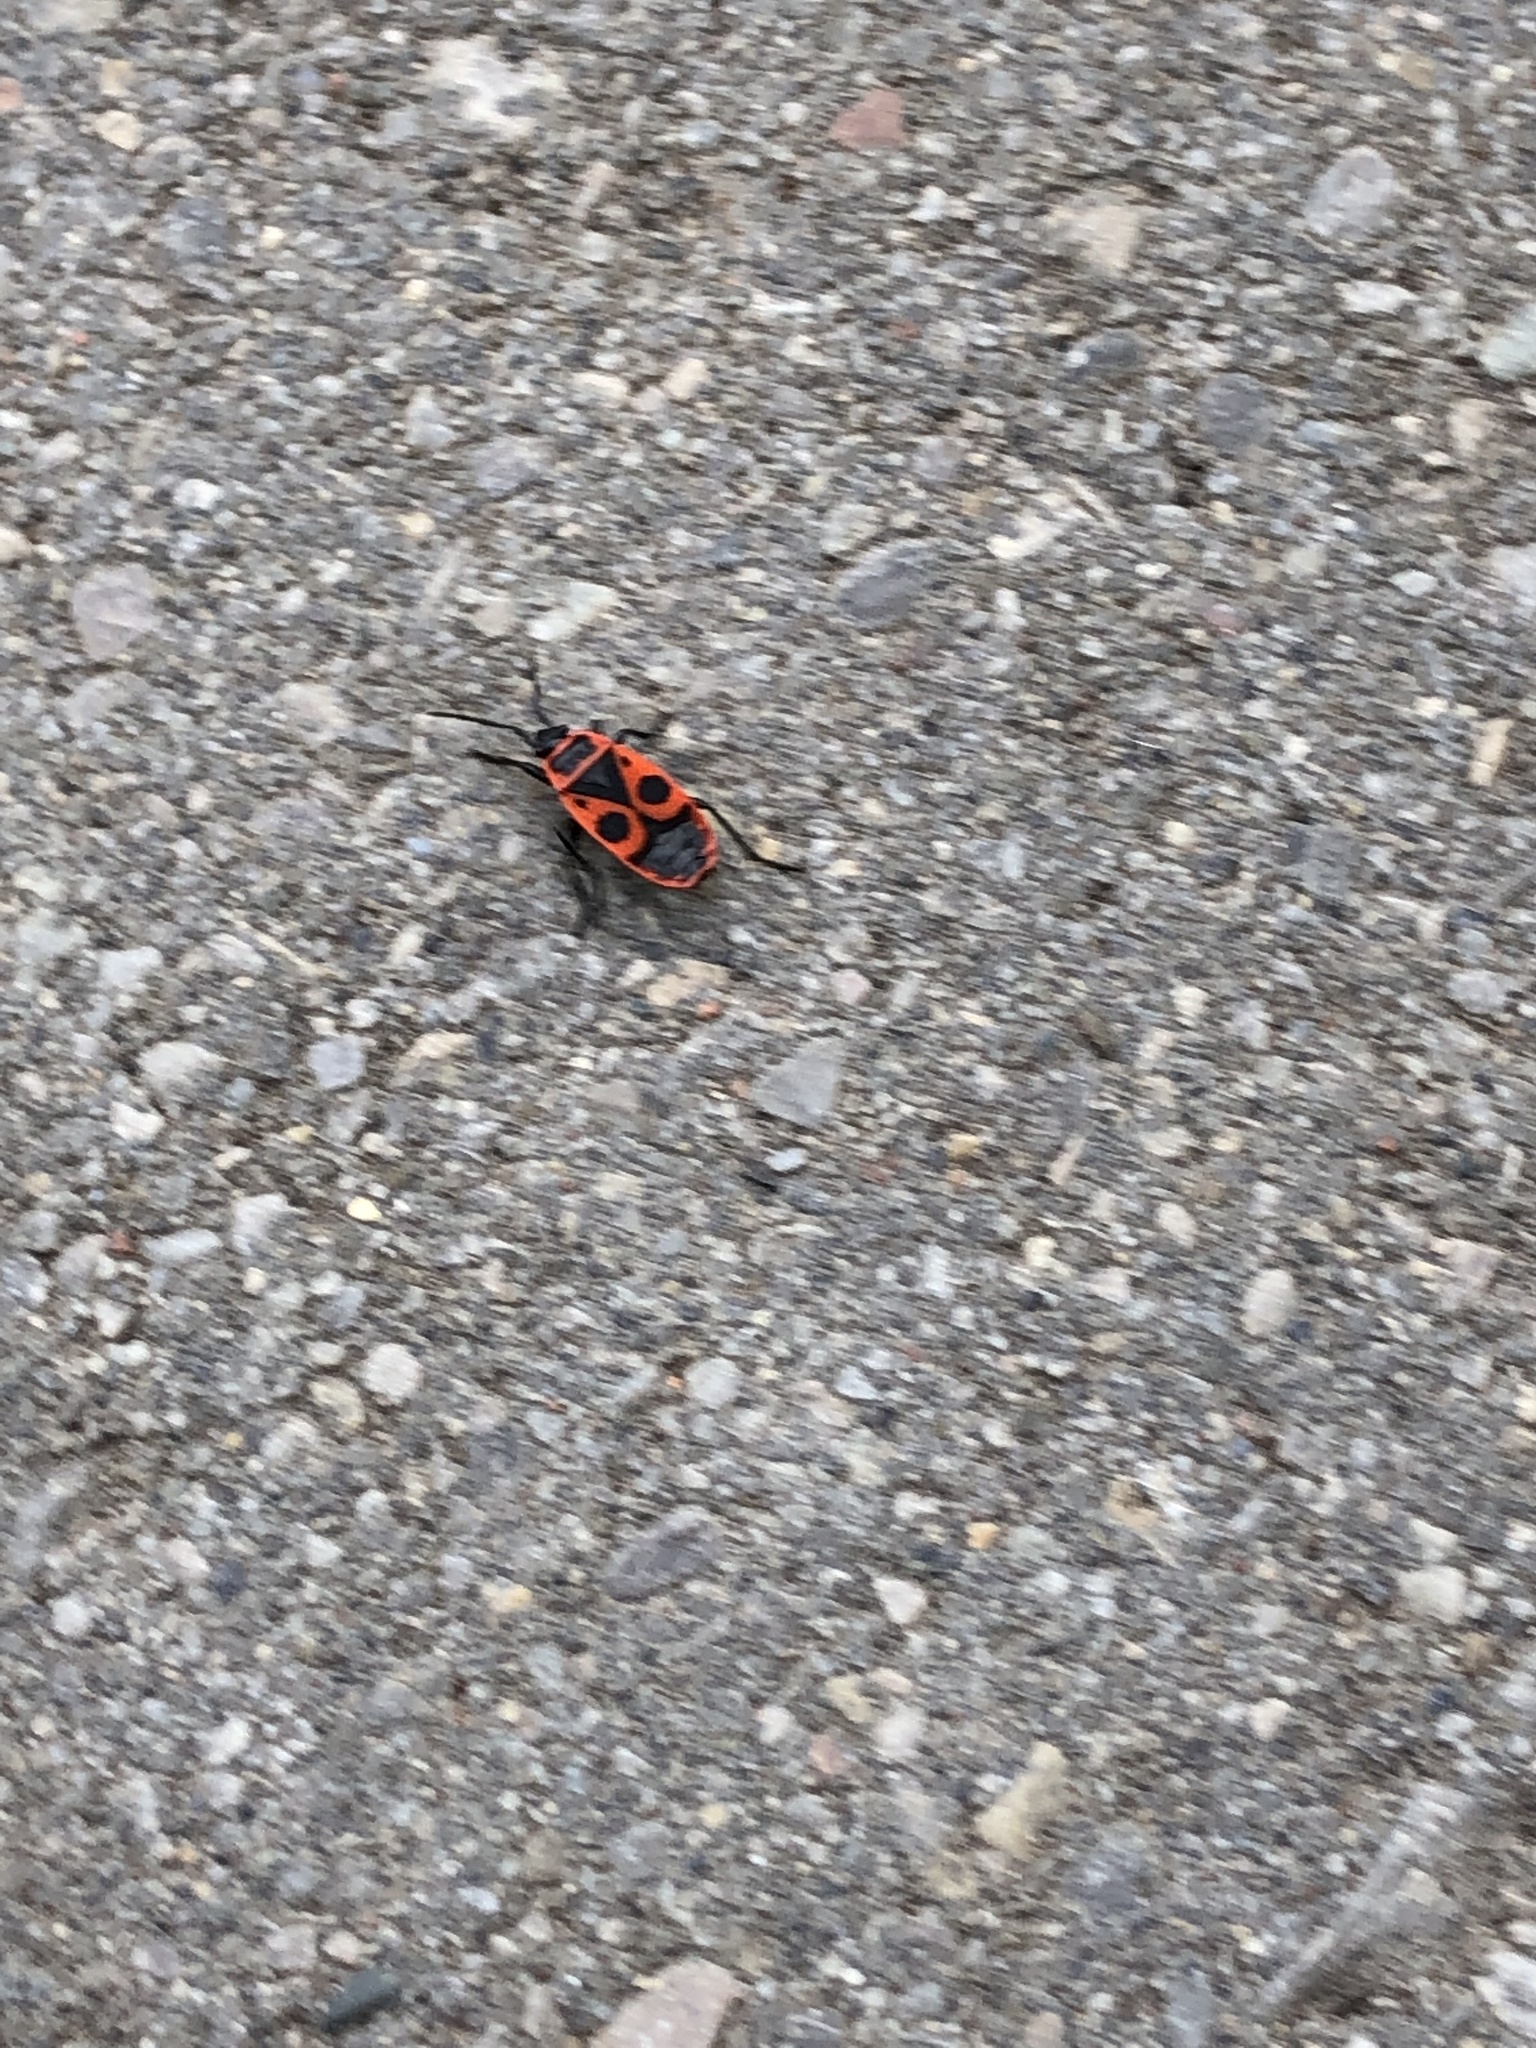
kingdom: Animalia
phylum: Arthropoda
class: Insecta
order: Hemiptera
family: Pyrrhocoridae
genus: Pyrrhocoris
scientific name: Pyrrhocoris apterus
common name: Firebug
